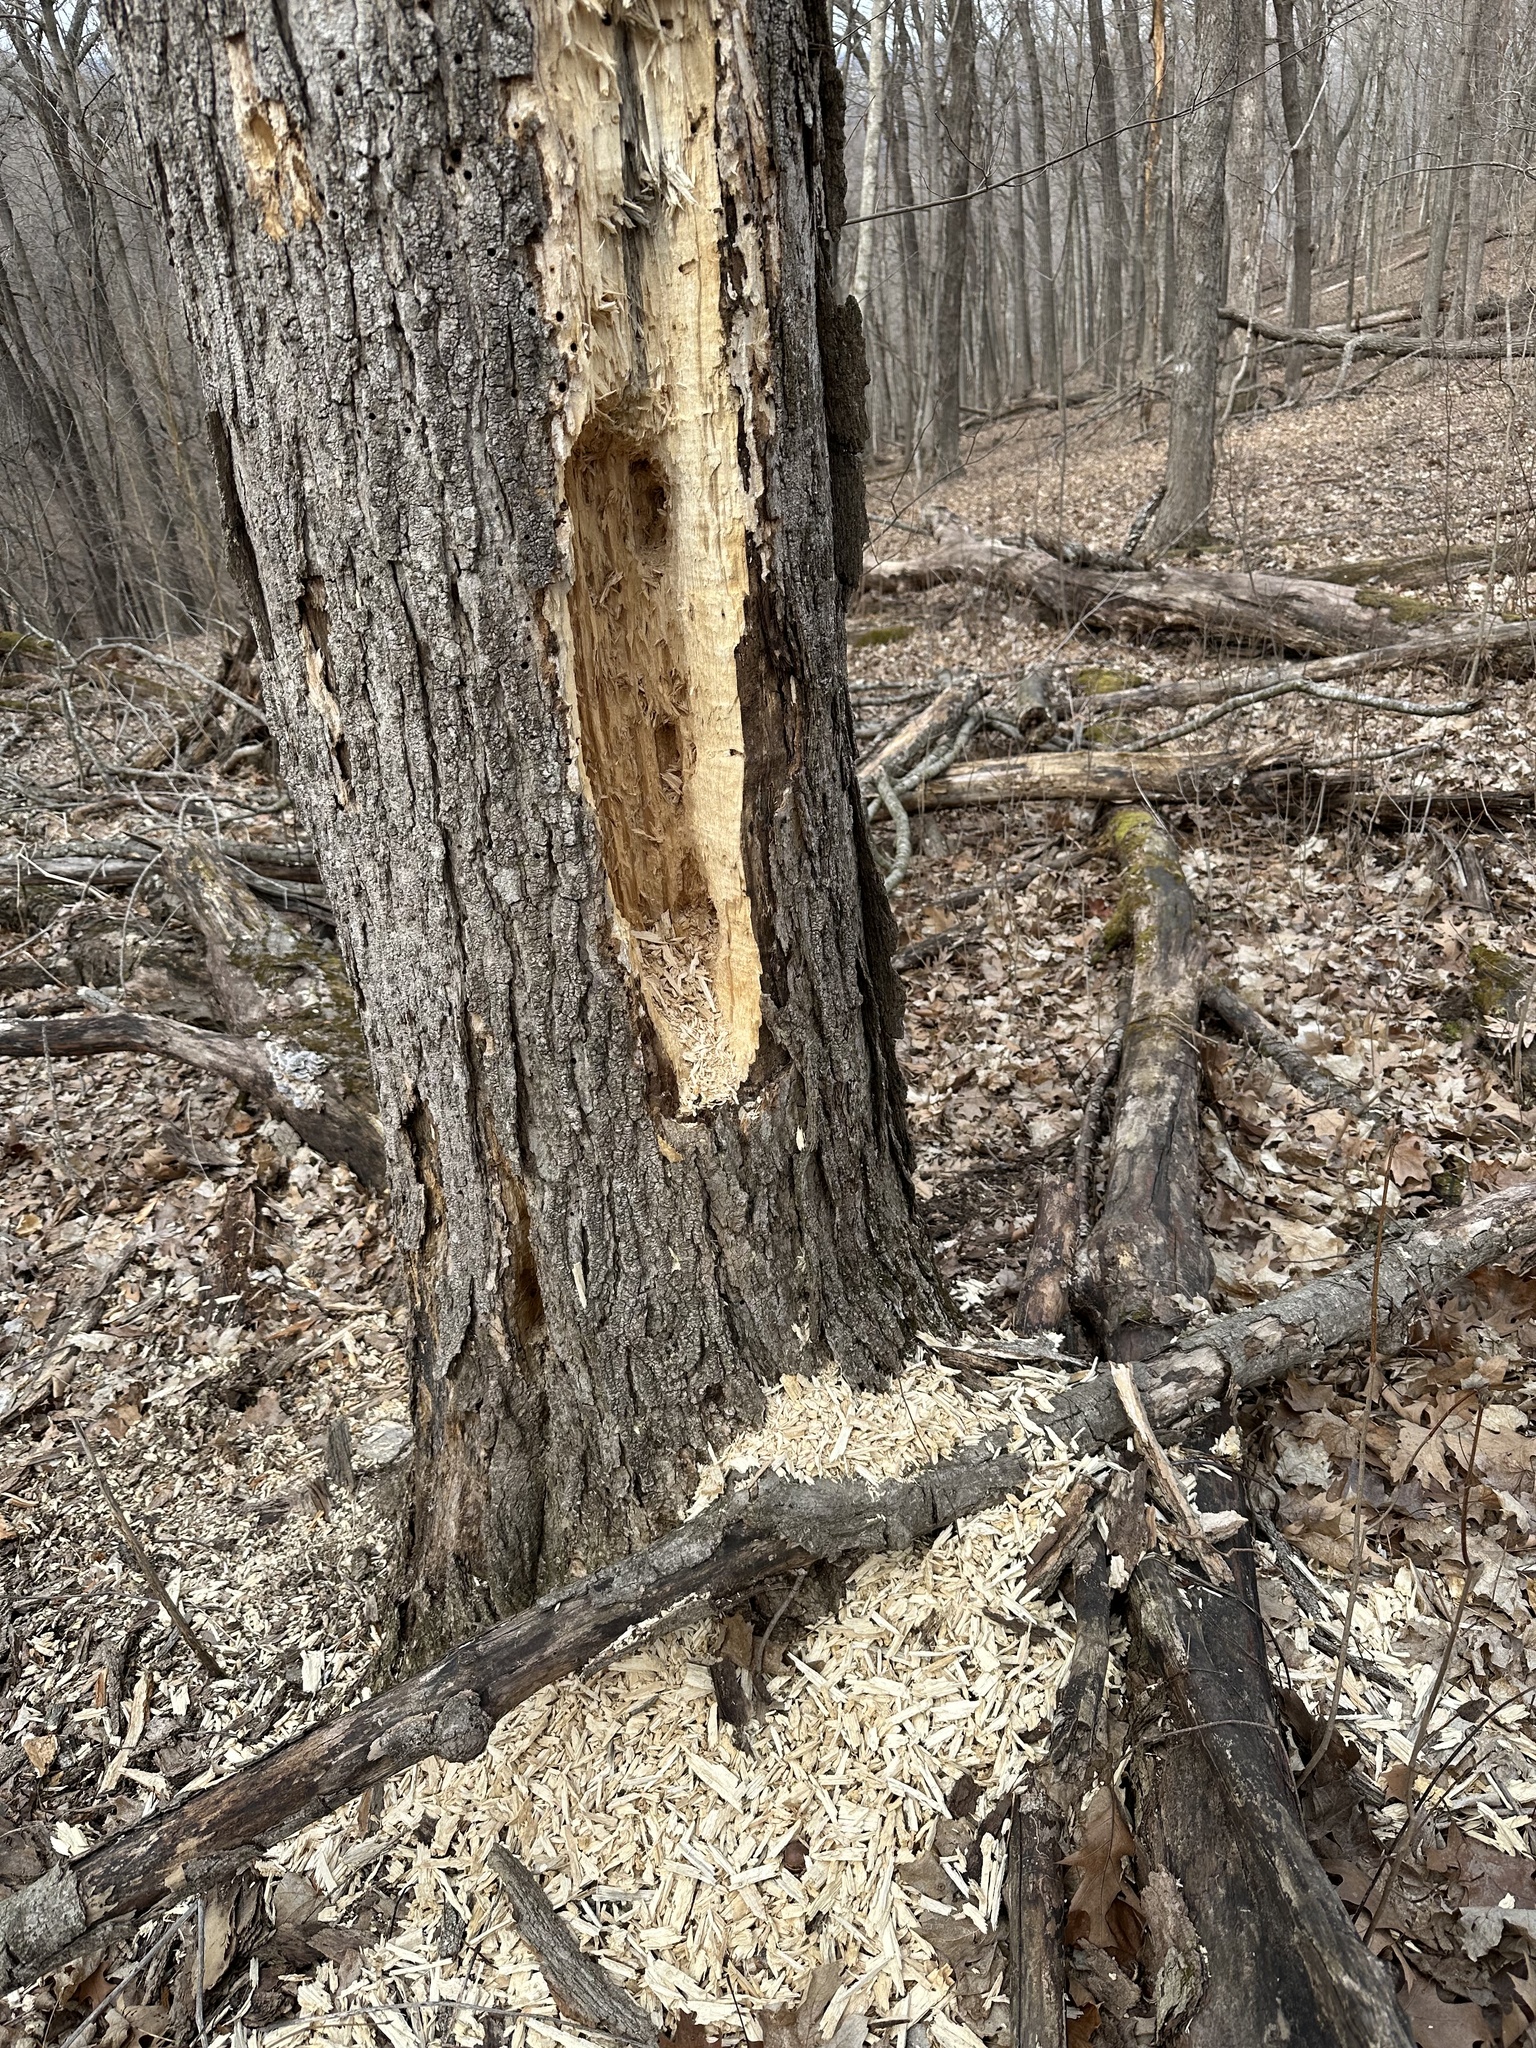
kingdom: Animalia
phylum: Chordata
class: Aves
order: Piciformes
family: Picidae
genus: Dryocopus
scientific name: Dryocopus pileatus
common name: Pileated woodpecker
